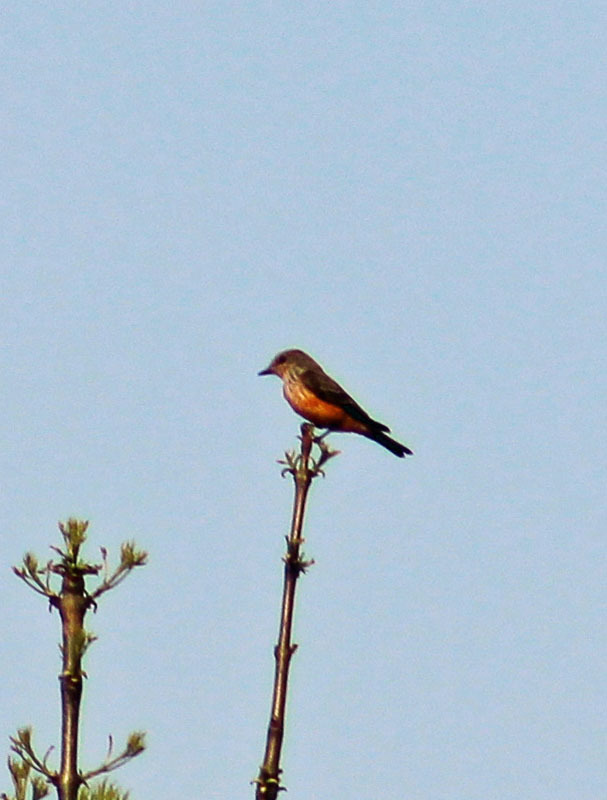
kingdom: Animalia
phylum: Chordata
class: Aves
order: Passeriformes
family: Tyrannidae
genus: Pyrocephalus
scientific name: Pyrocephalus rubinus
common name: Vermilion flycatcher
